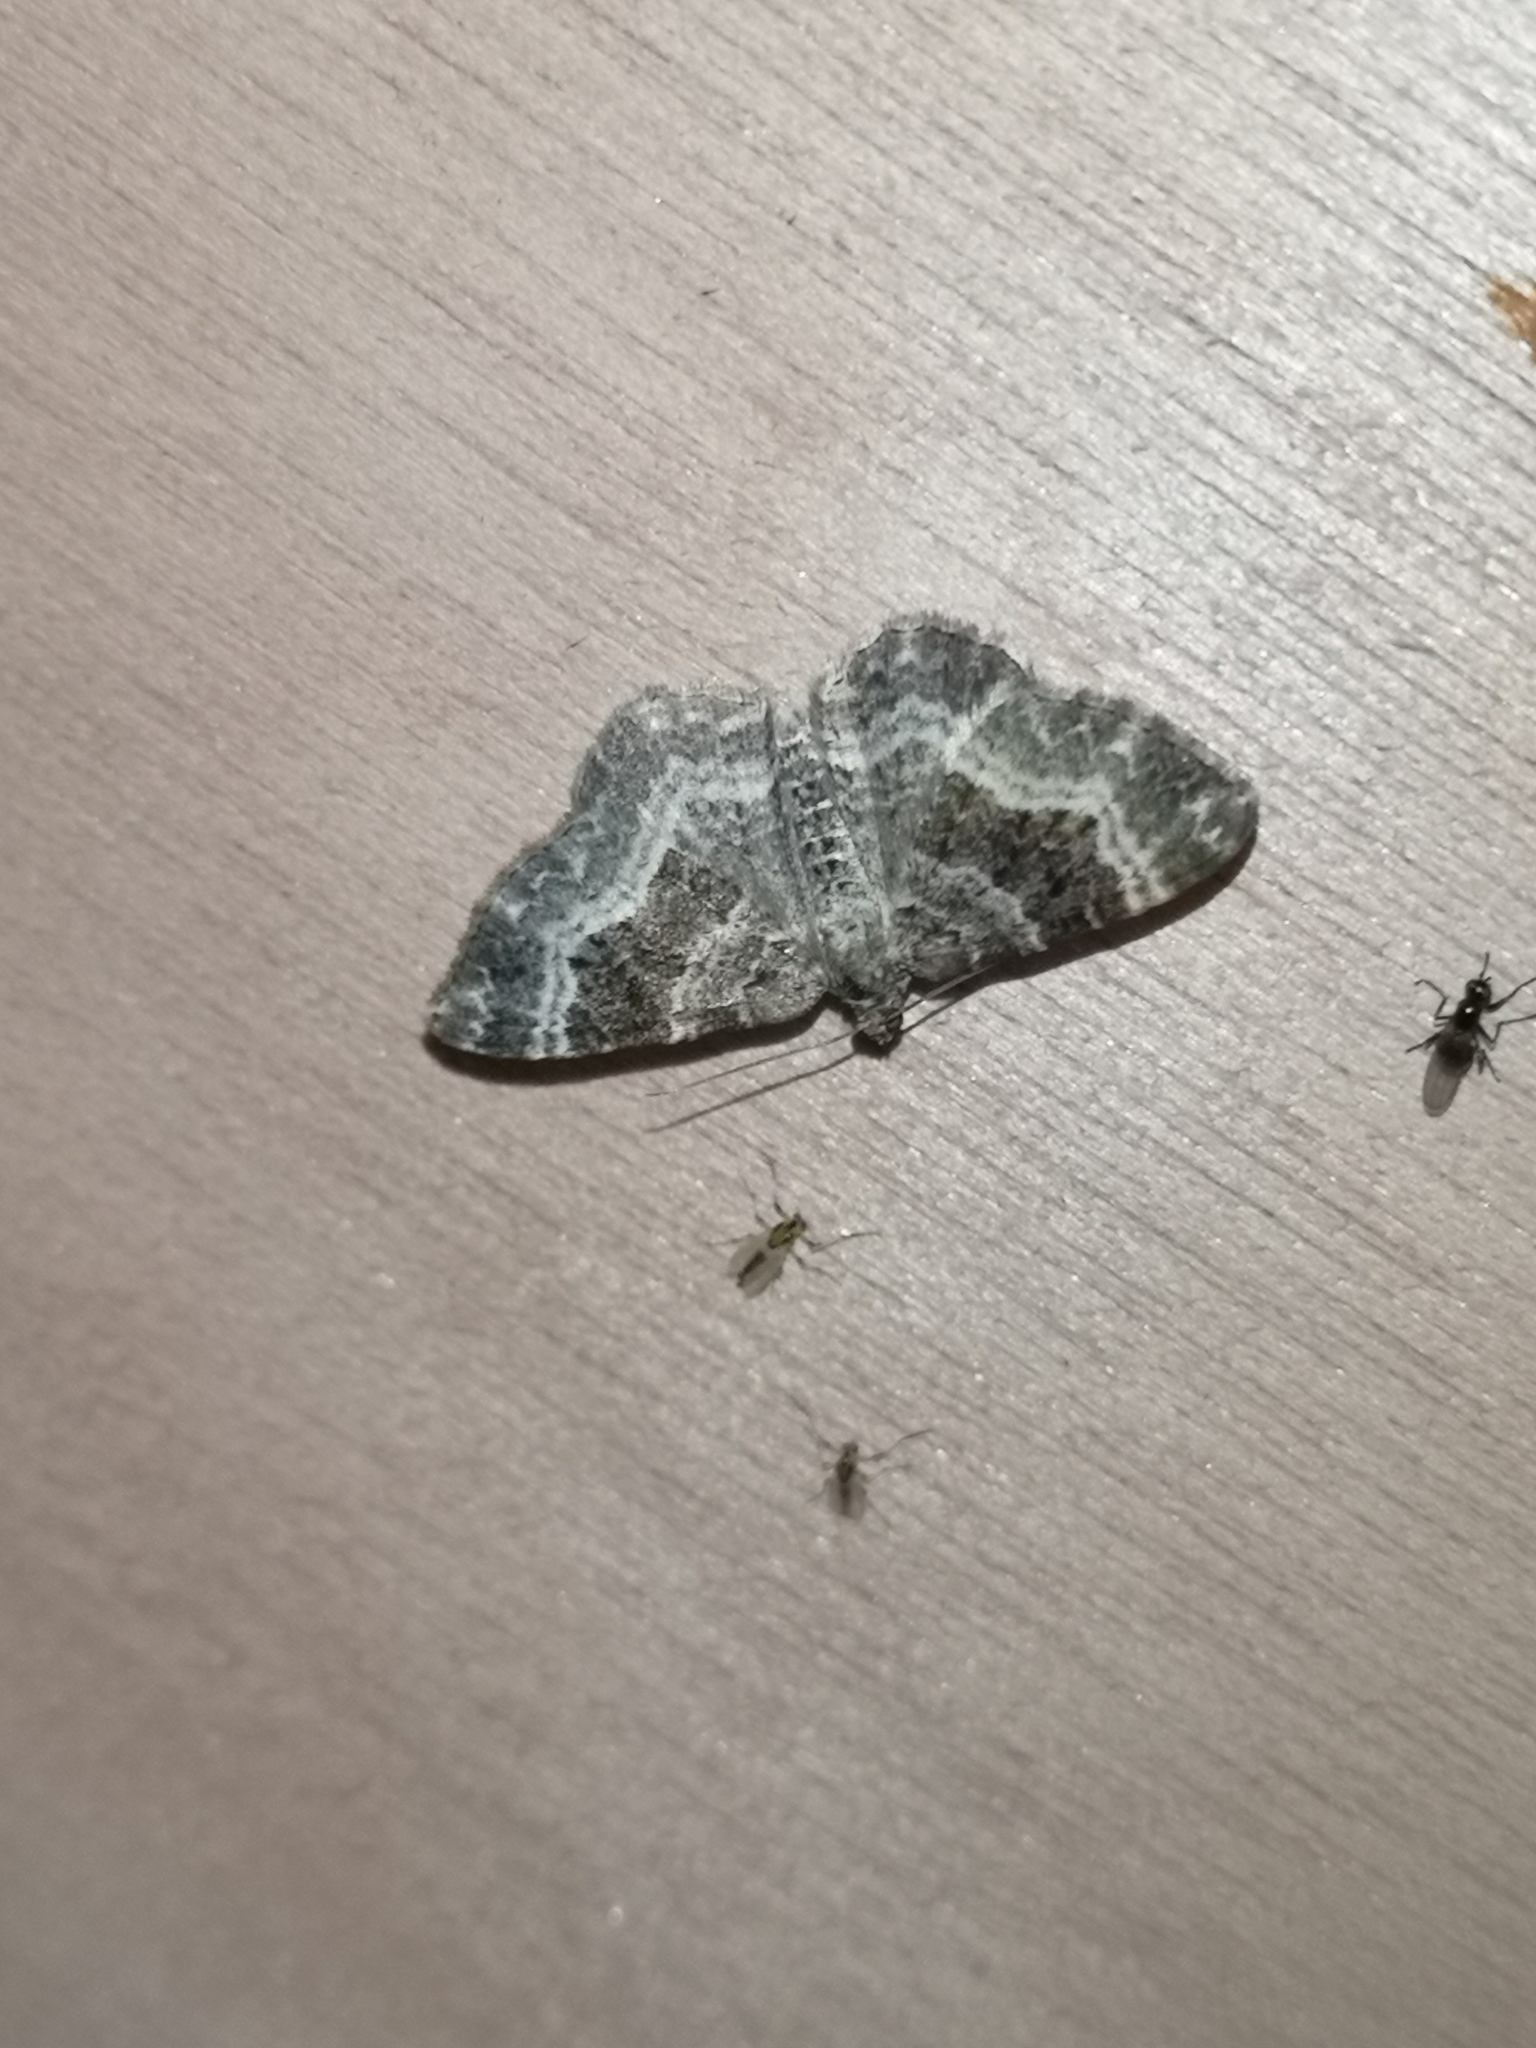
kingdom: Animalia
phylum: Arthropoda
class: Insecta
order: Lepidoptera
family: Geometridae
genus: Epirrhoe
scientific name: Epirrhoe alternata
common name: Common carpet
